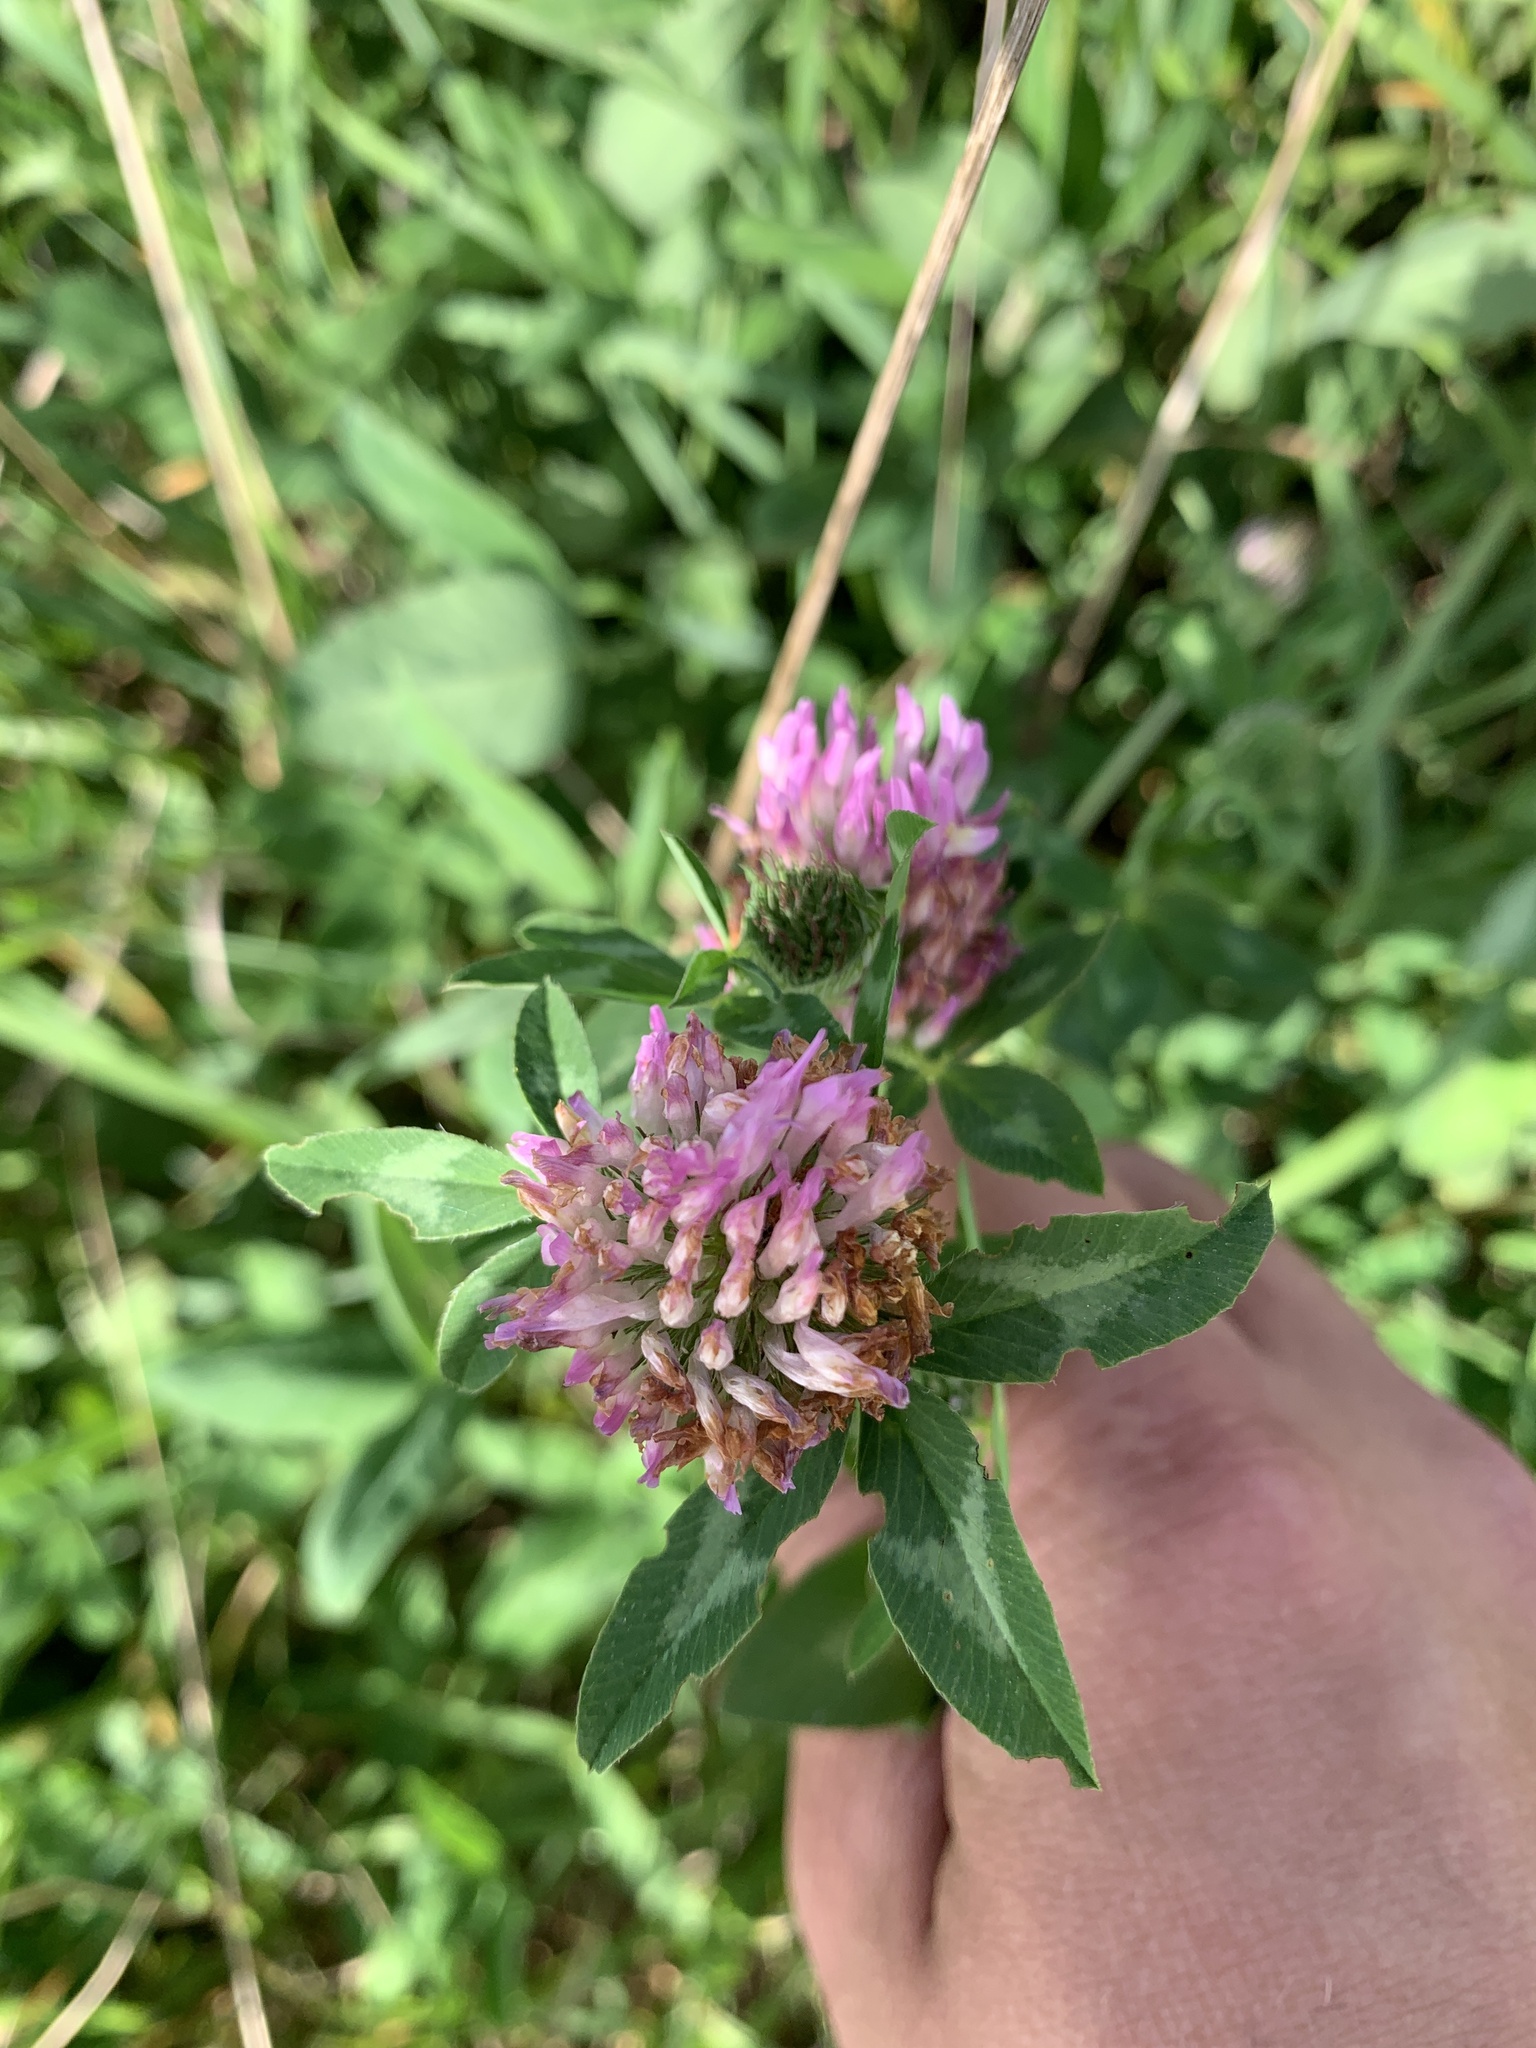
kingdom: Plantae
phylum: Tracheophyta
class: Magnoliopsida
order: Fabales
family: Fabaceae
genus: Trifolium
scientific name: Trifolium pratense
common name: Red clover
